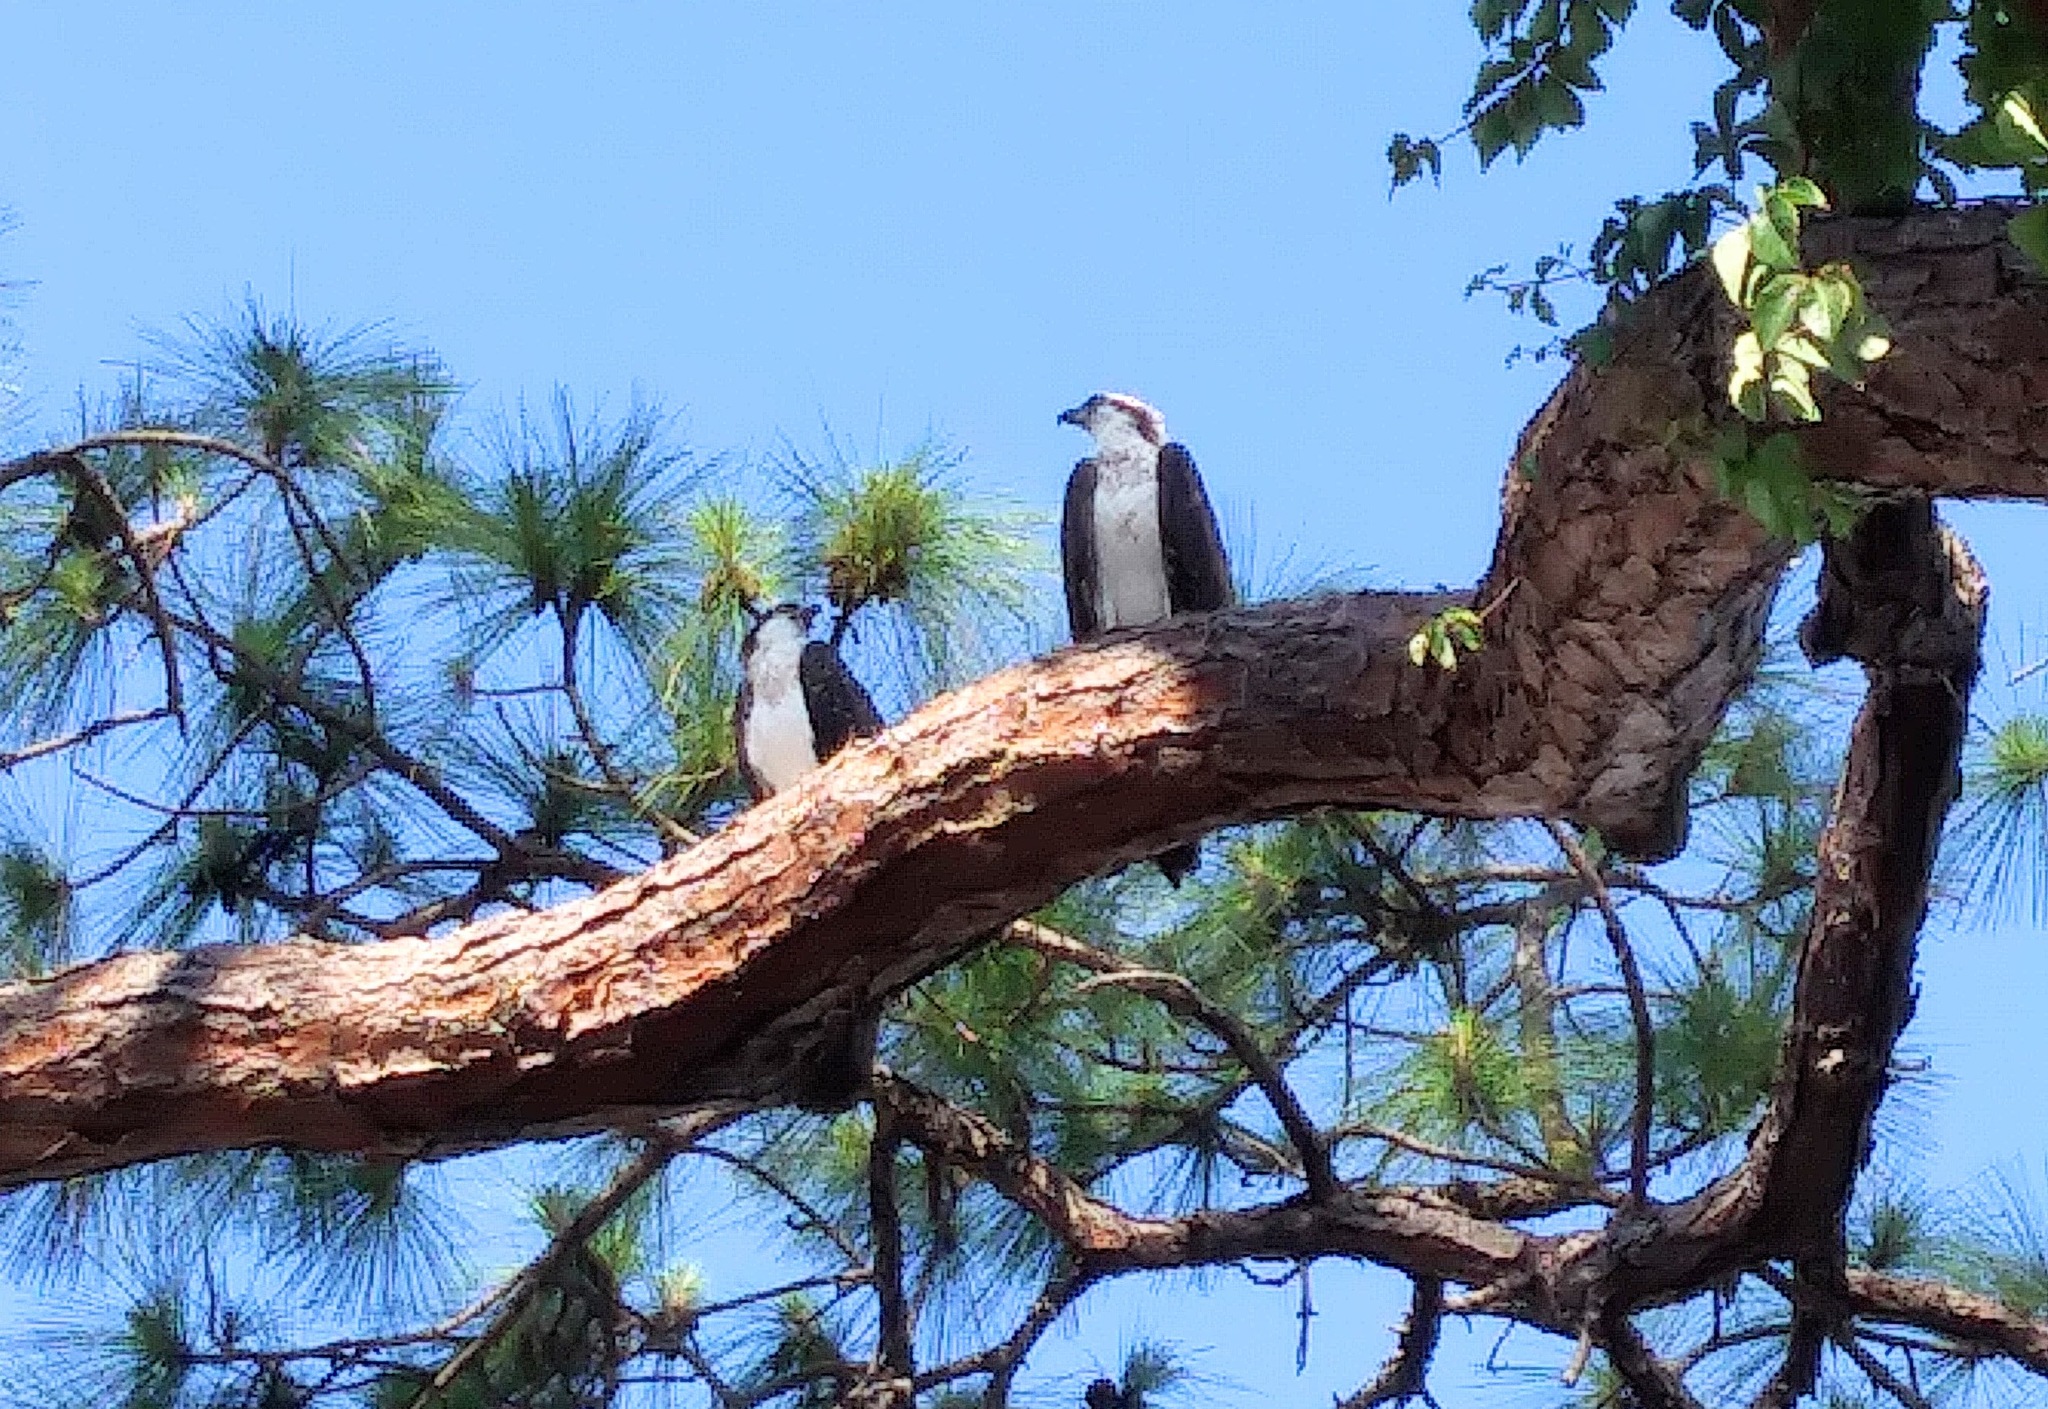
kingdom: Animalia
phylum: Chordata
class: Aves
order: Accipitriformes
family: Pandionidae
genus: Pandion
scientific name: Pandion haliaetus
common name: Osprey
